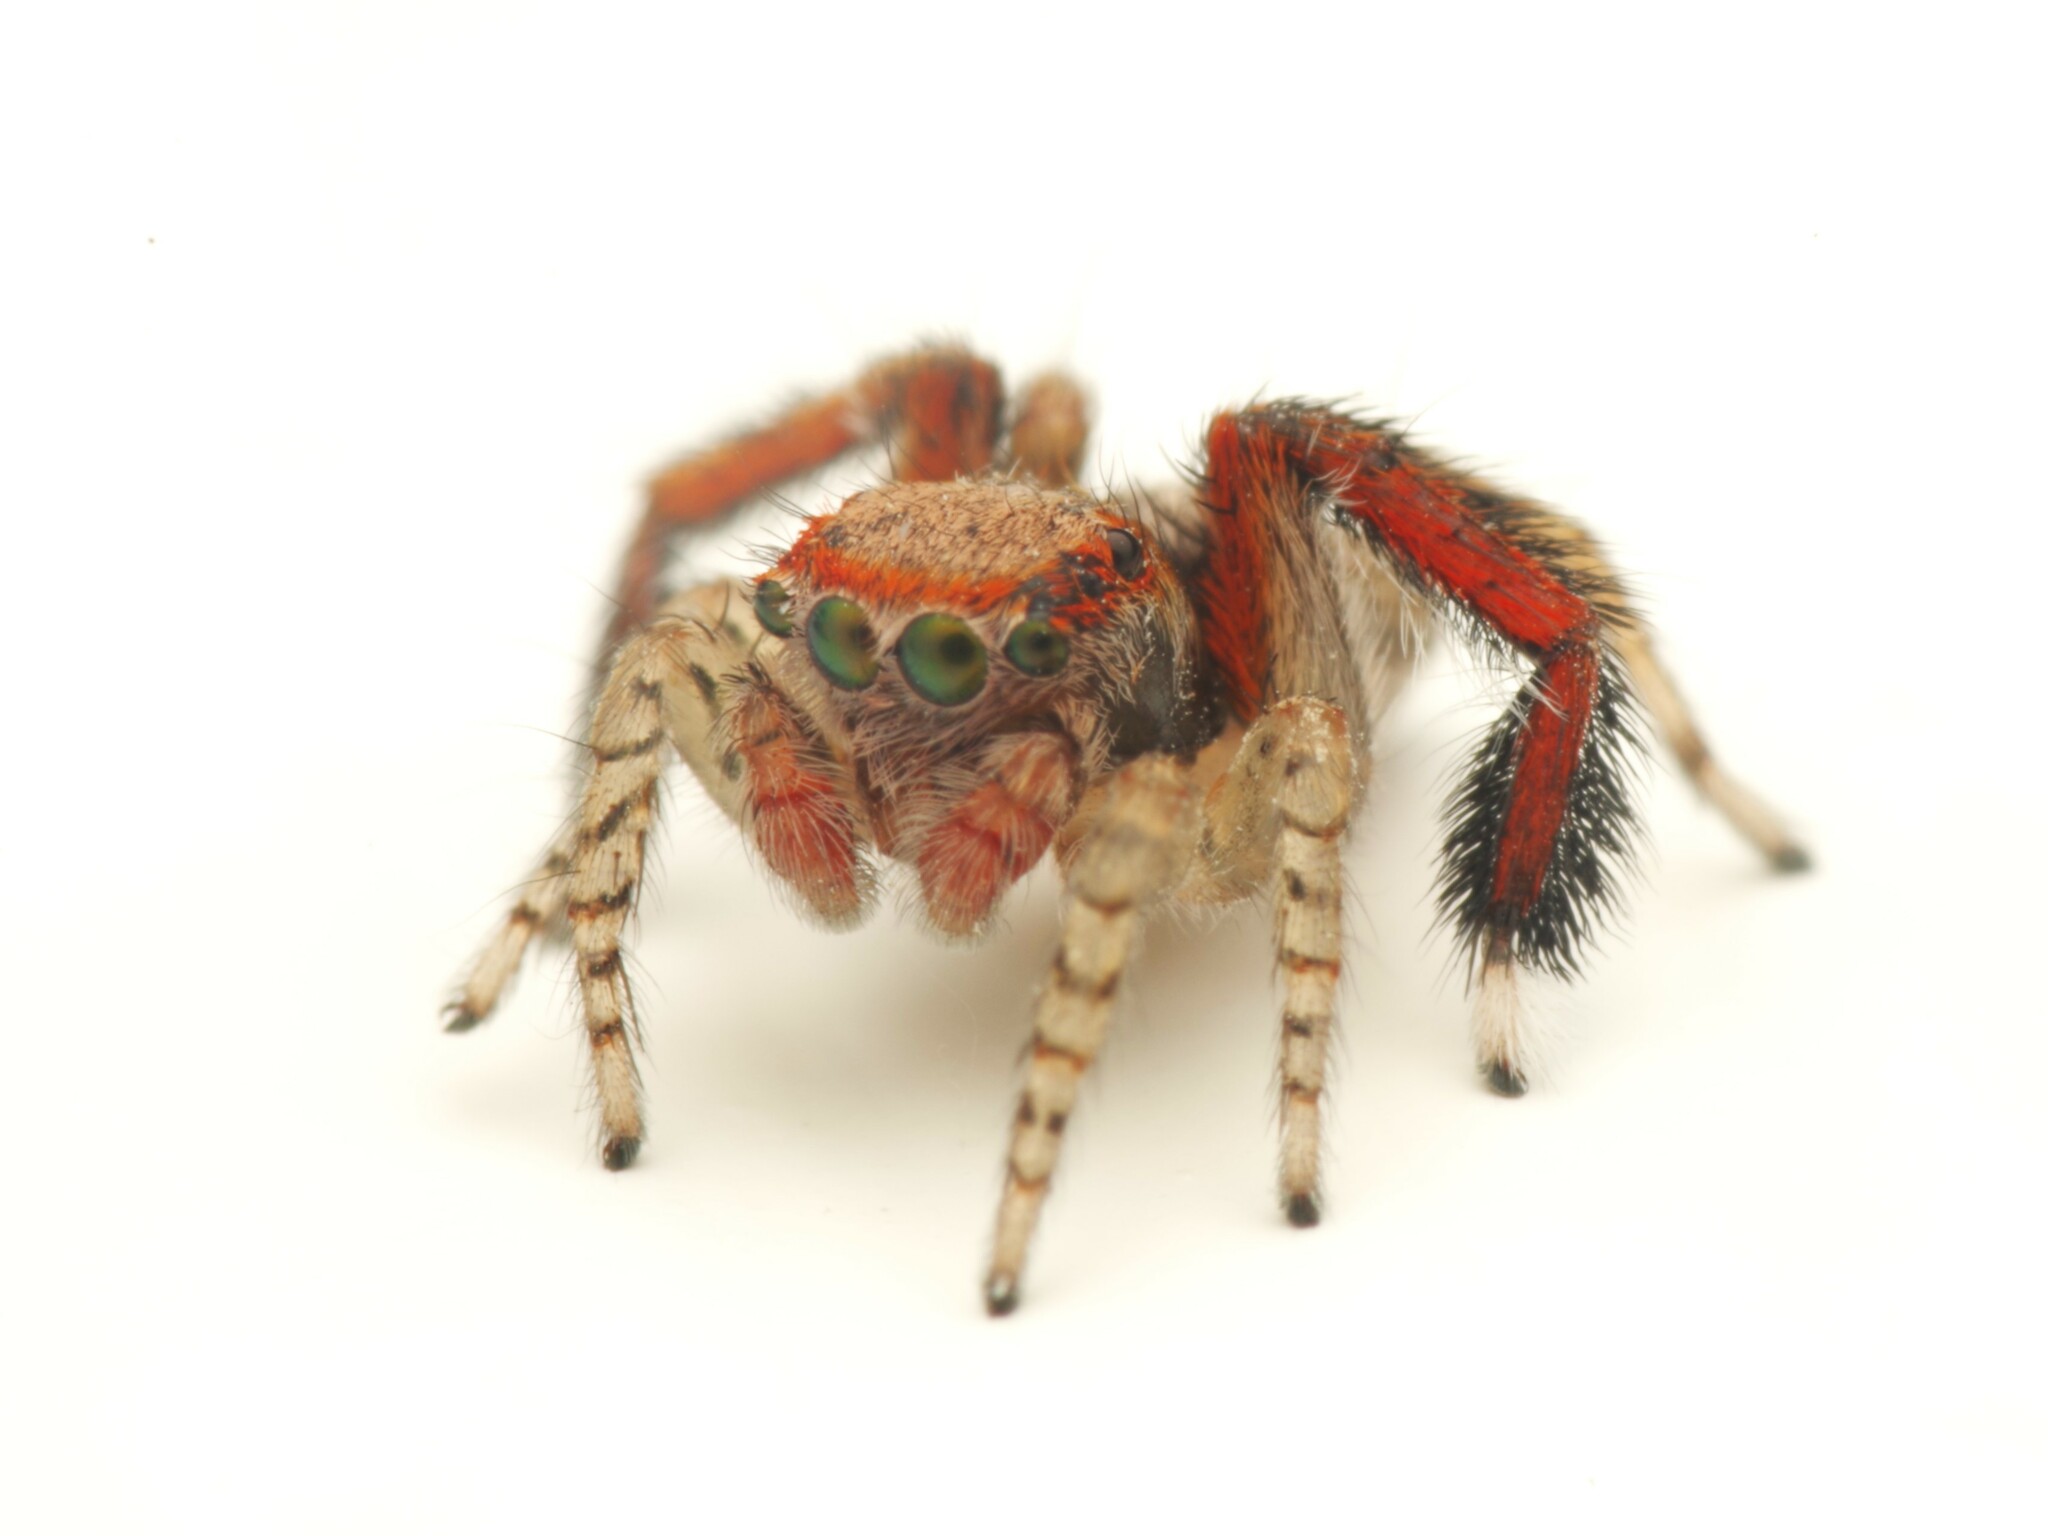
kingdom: Animalia
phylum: Arthropoda
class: Arachnida
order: Araneae
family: Salticidae
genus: Saitis
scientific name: Saitis barbipes
